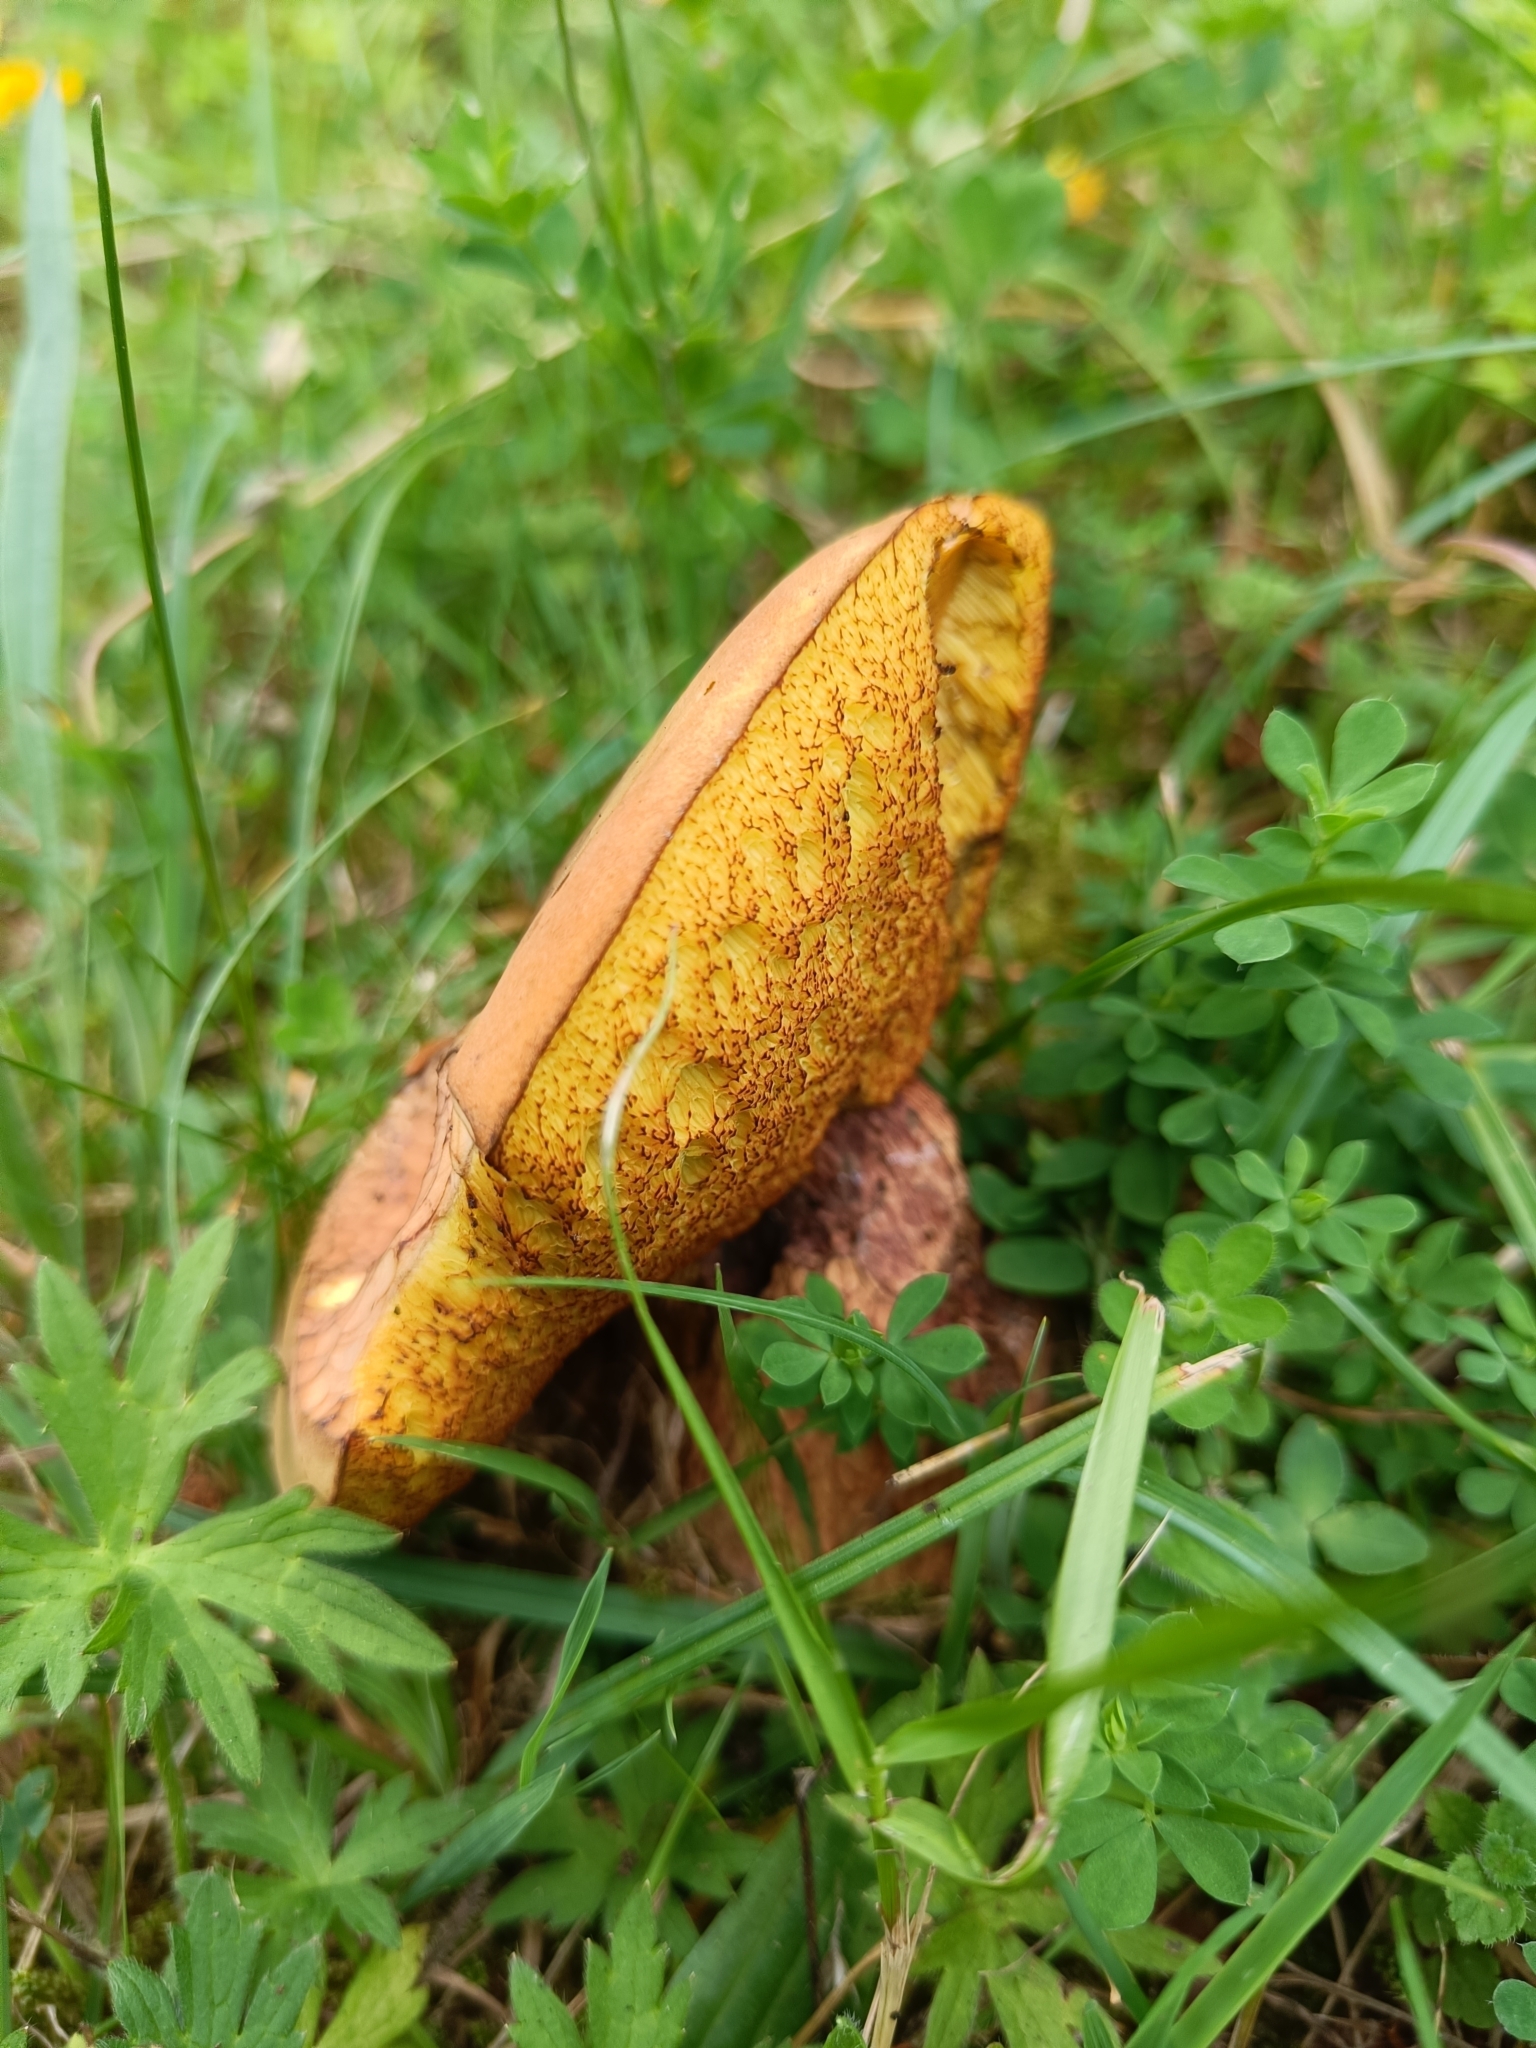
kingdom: Fungi
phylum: Basidiomycota
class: Agaricomycetes
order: Boletales
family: Boletaceae
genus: Suillellus
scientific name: Suillellus luridus
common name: Lurid bolete
